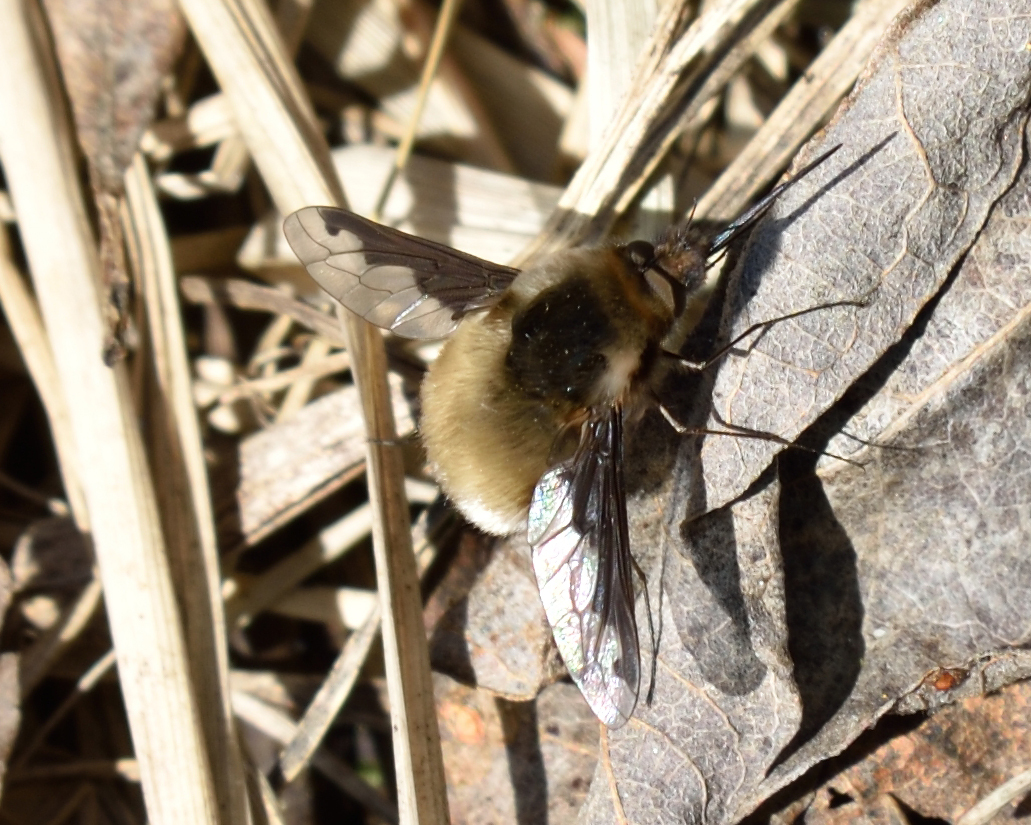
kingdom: Animalia
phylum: Arthropoda
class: Insecta
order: Diptera
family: Bombyliidae
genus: Bombylius
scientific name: Bombylius major
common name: Bee fly
